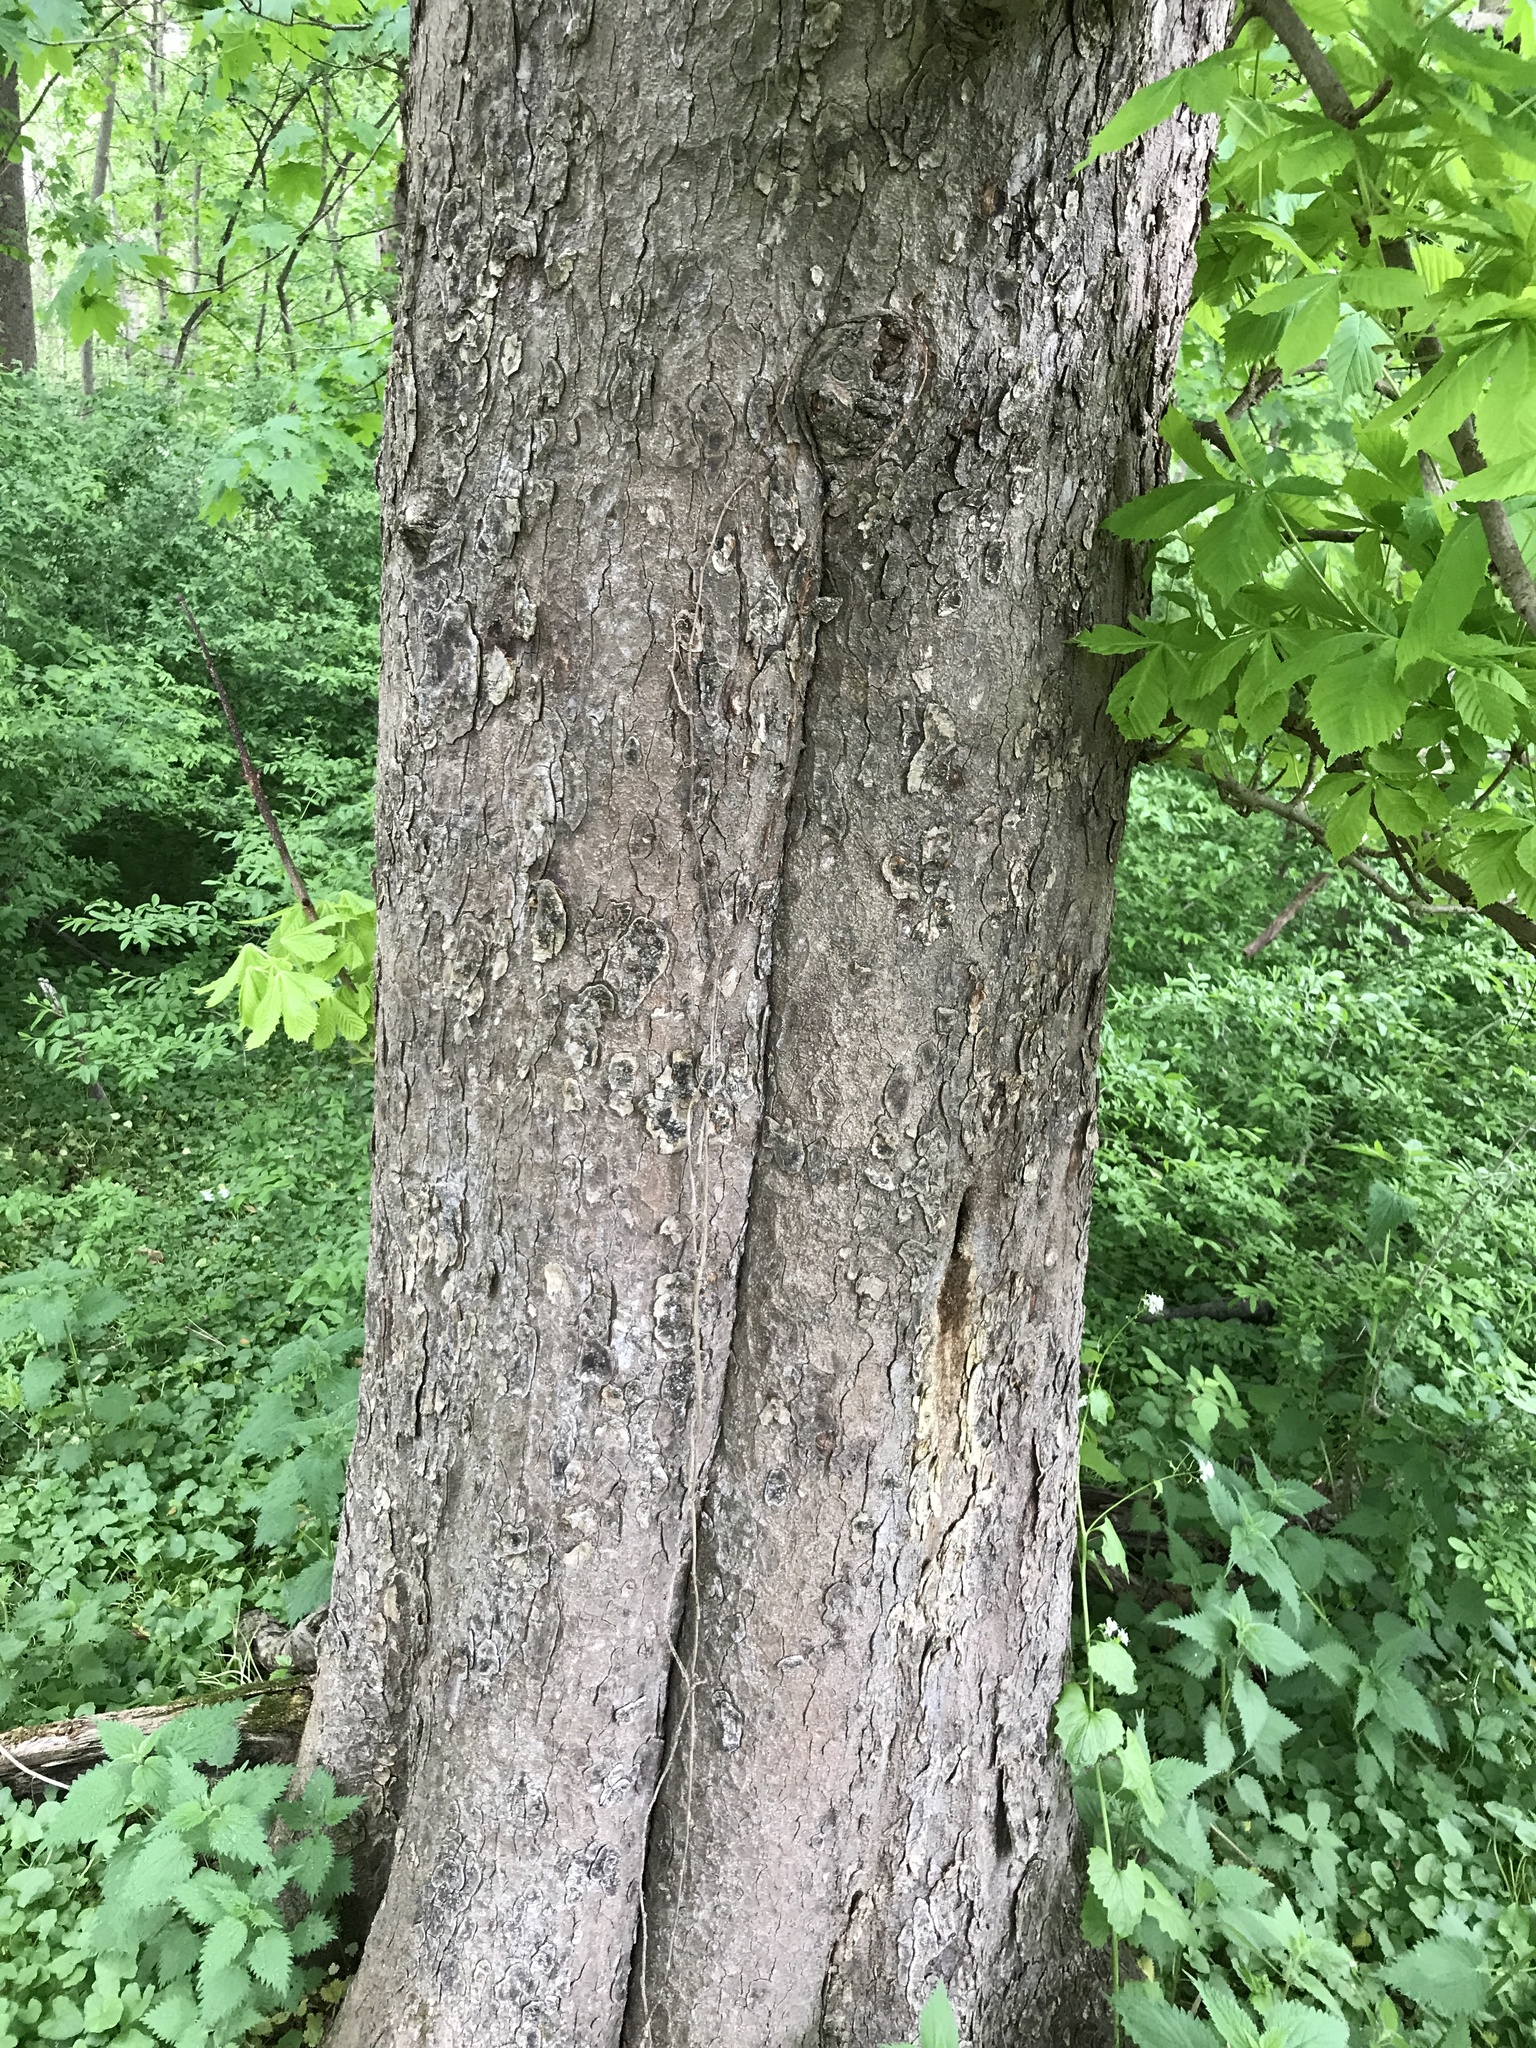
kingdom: Plantae
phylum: Tracheophyta
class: Magnoliopsida
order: Sapindales
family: Sapindaceae
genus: Aesculus
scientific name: Aesculus hippocastanum
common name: Horse-chestnut
